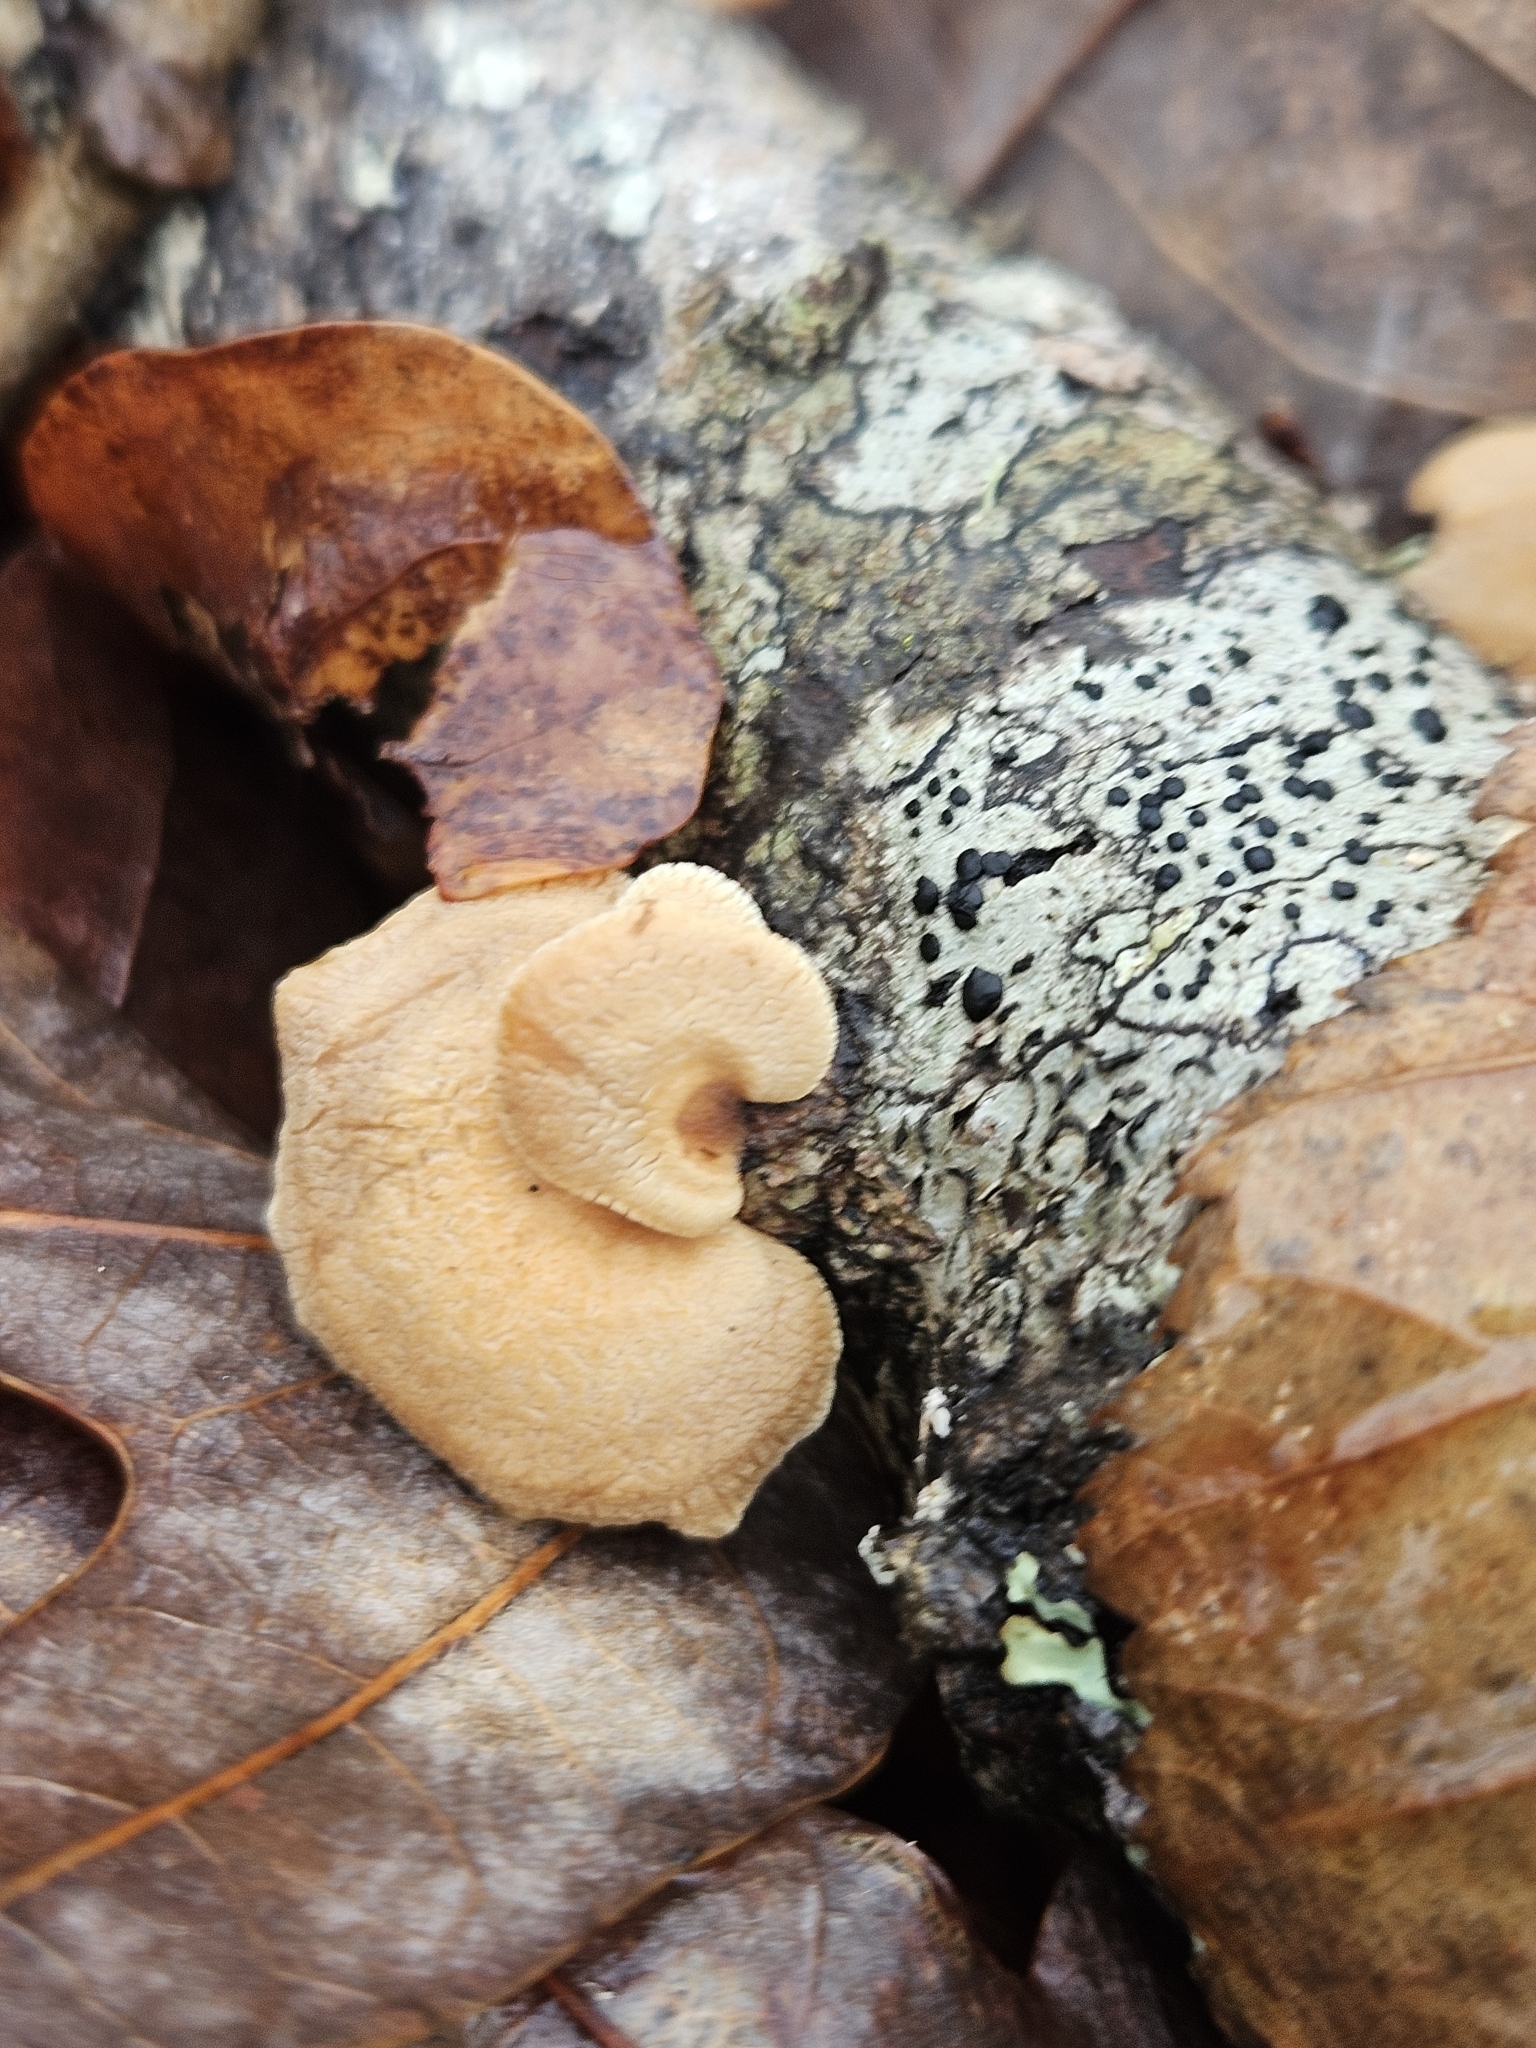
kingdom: Fungi
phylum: Basidiomycota
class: Agaricomycetes
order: Agaricales
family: Mycenaceae
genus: Panellus
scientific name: Panellus stipticus
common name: Bitter oysterling
